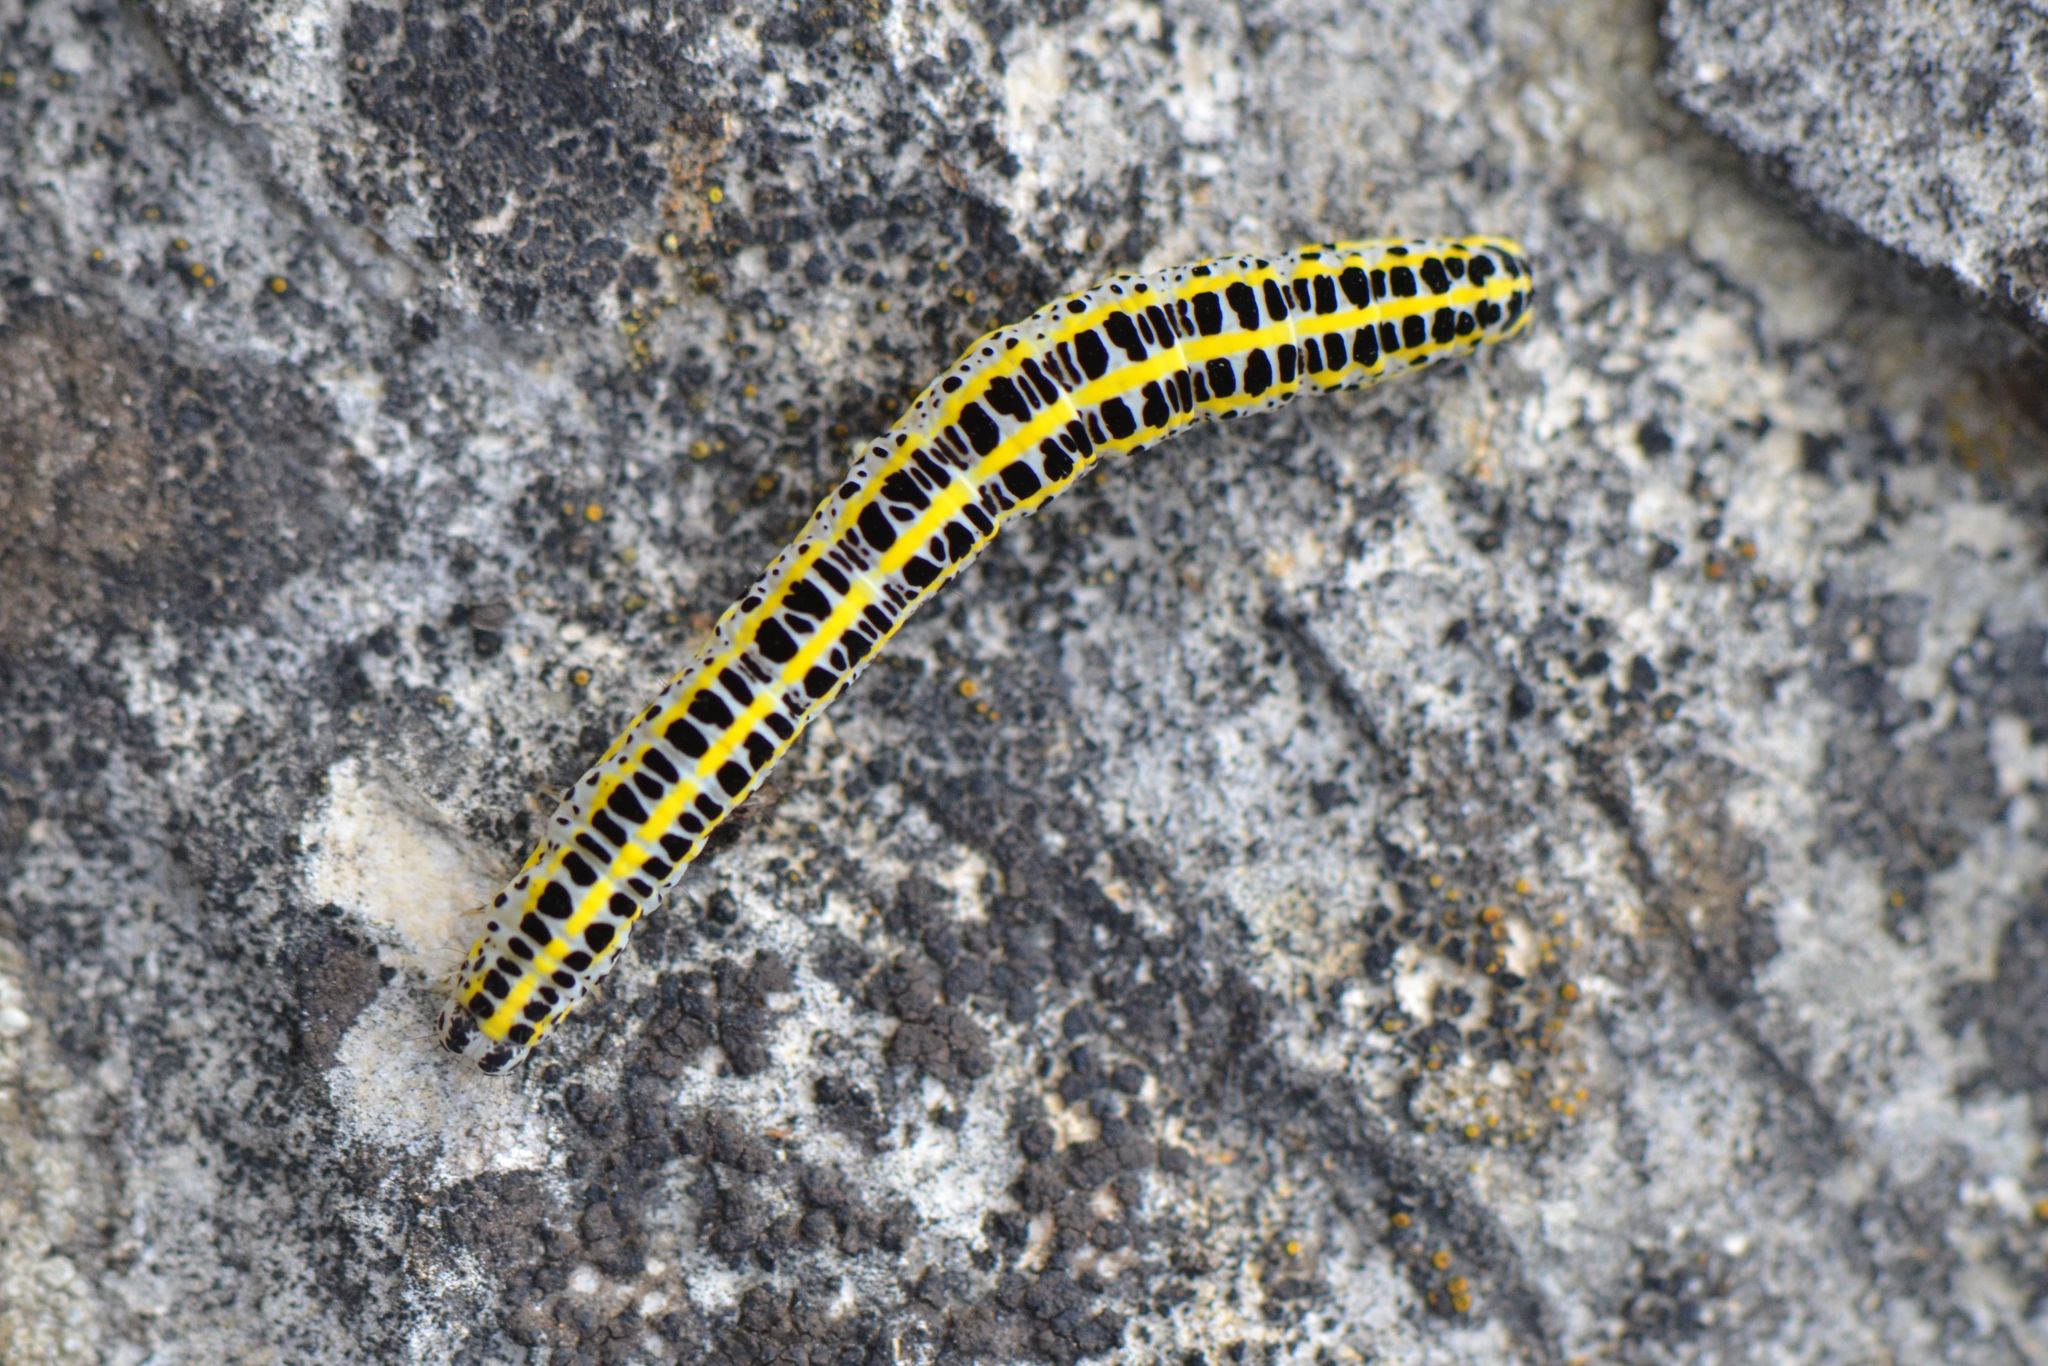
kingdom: Animalia
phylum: Arthropoda
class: Insecta
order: Lepidoptera
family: Noctuidae
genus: Calophasia
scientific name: Calophasia lunula
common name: Toadflax brocade
